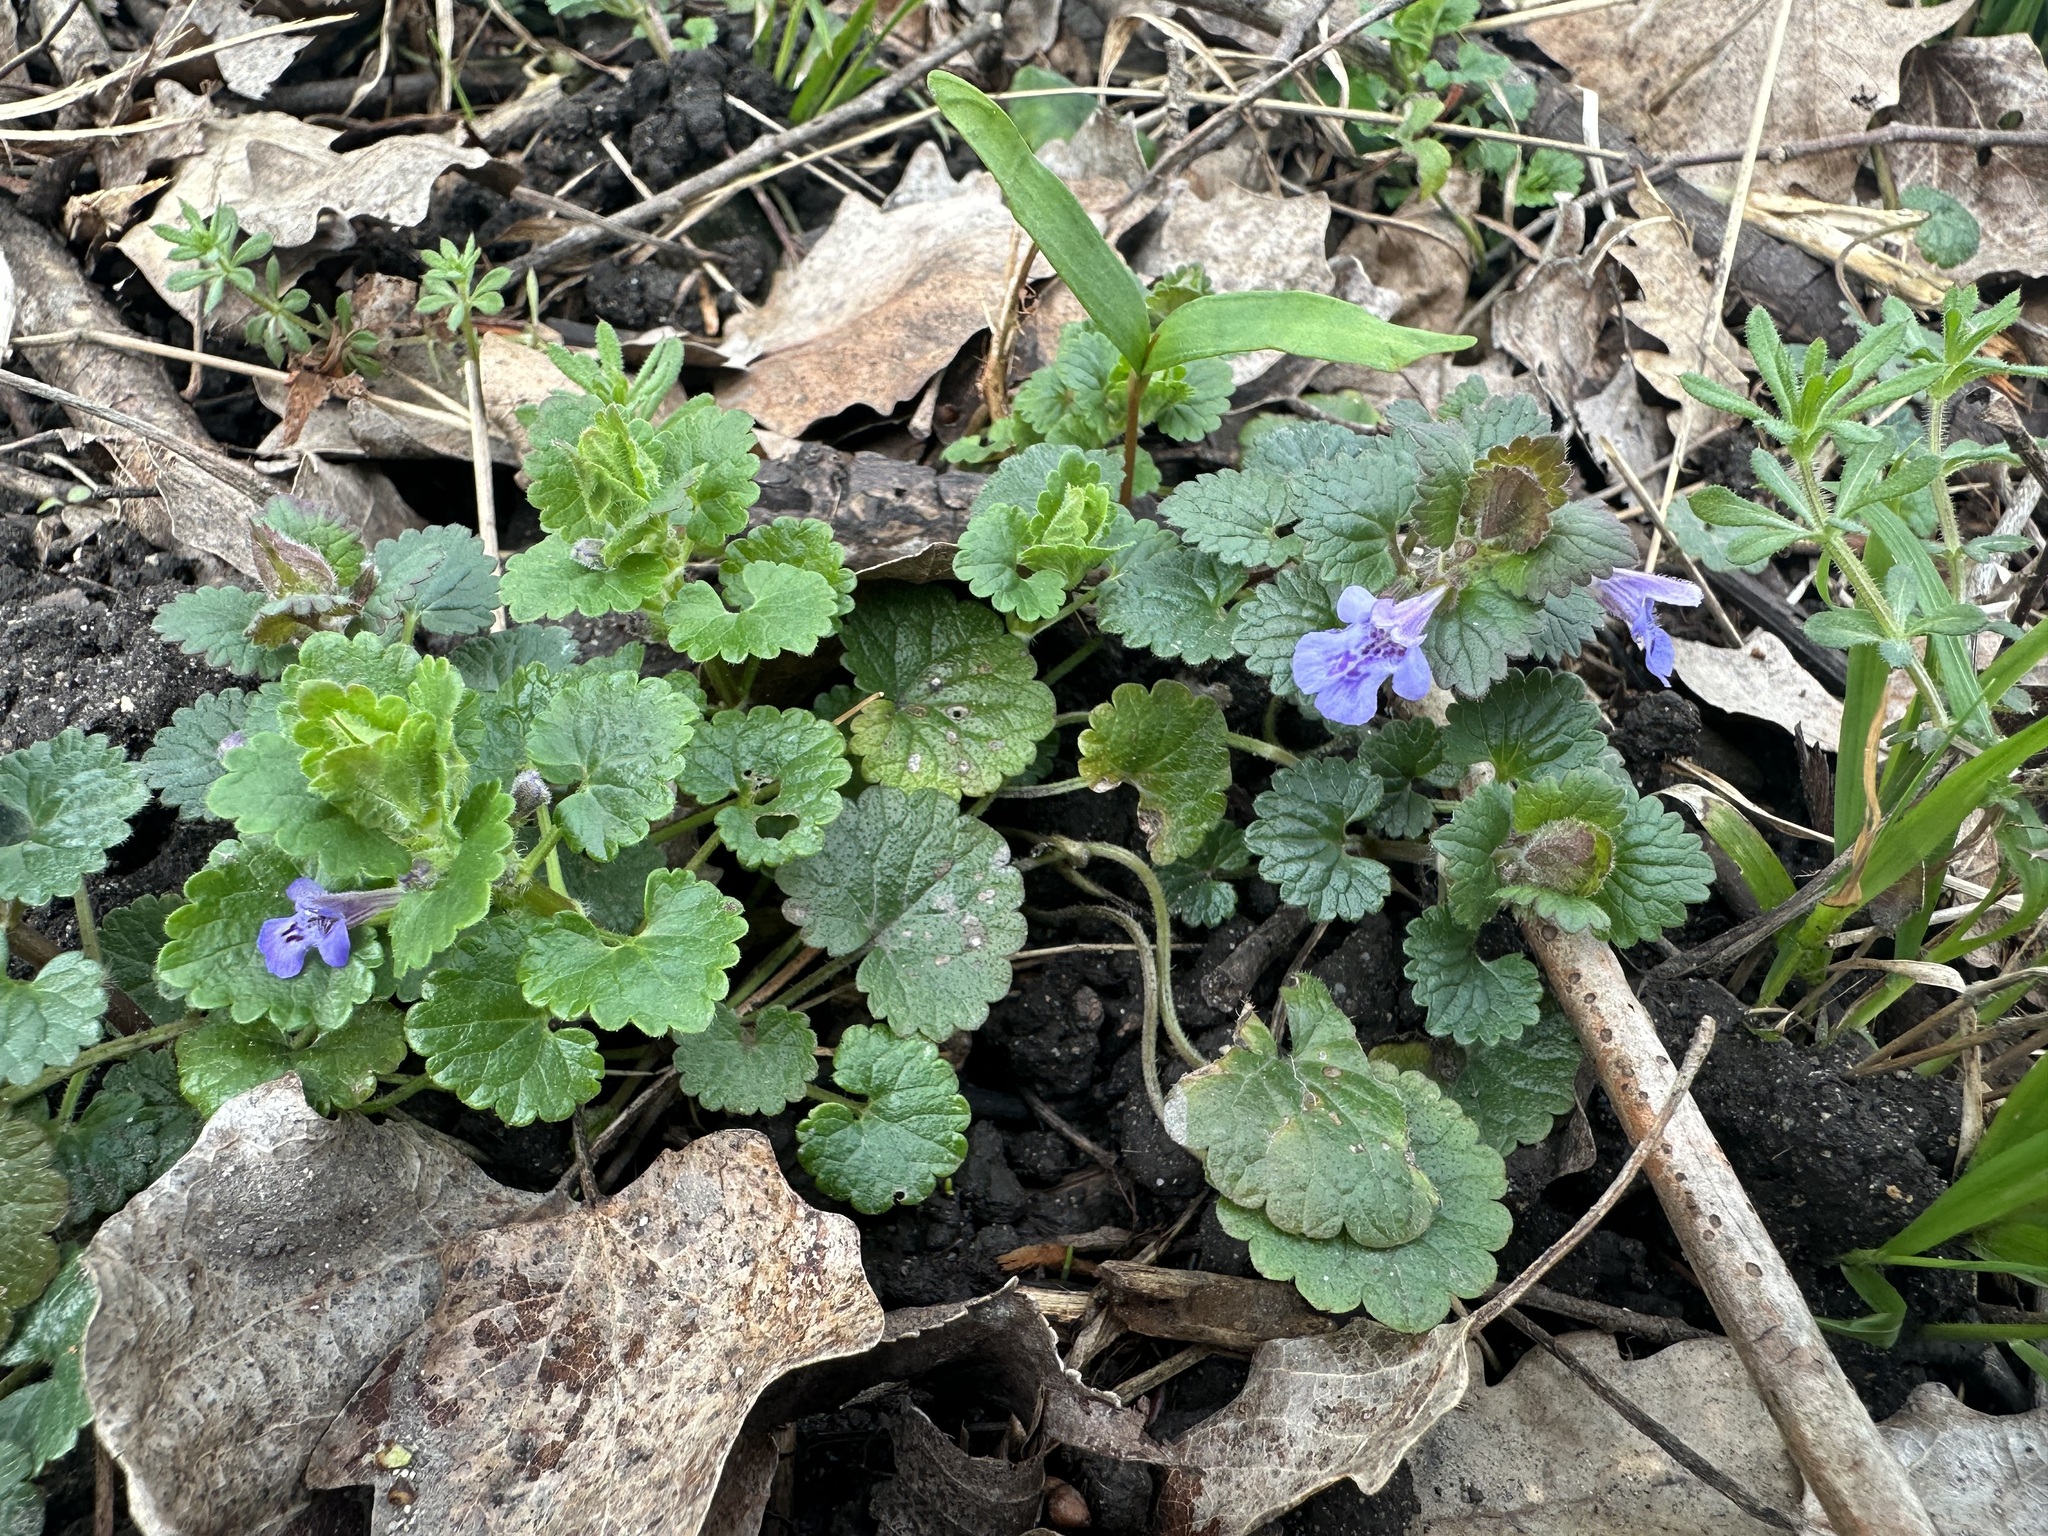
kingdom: Plantae
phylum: Tracheophyta
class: Magnoliopsida
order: Lamiales
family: Lamiaceae
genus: Glechoma
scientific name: Glechoma hederacea
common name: Ground ivy
